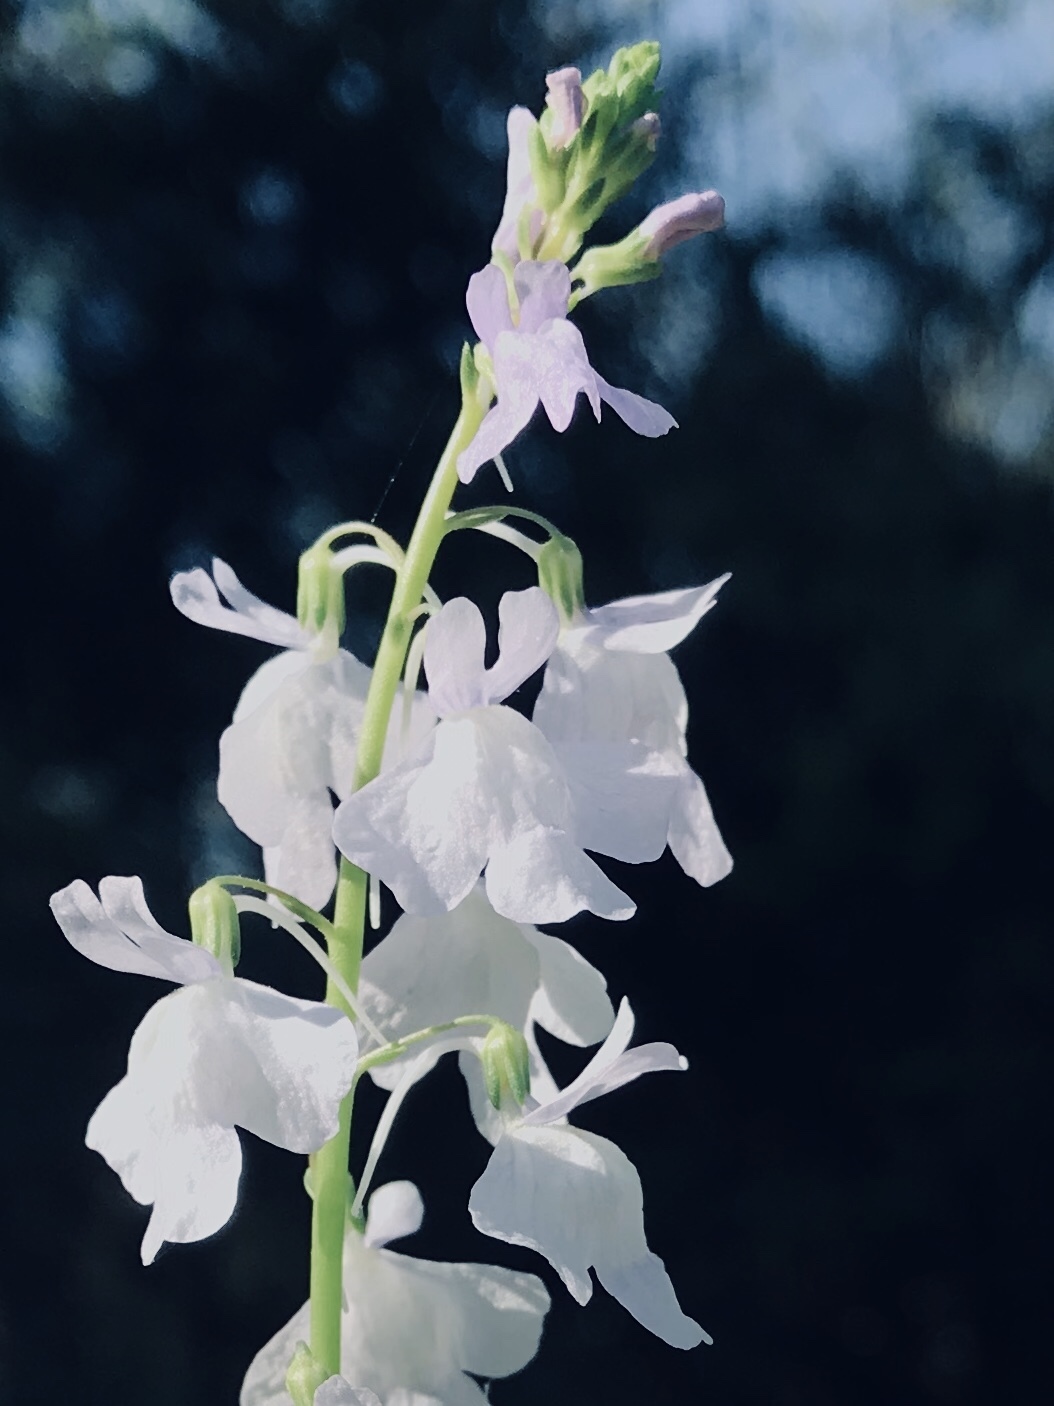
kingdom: Plantae
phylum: Tracheophyta
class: Magnoliopsida
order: Lamiales
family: Plantaginaceae
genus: Nuttallanthus
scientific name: Nuttallanthus texanus
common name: Texas toadflax
